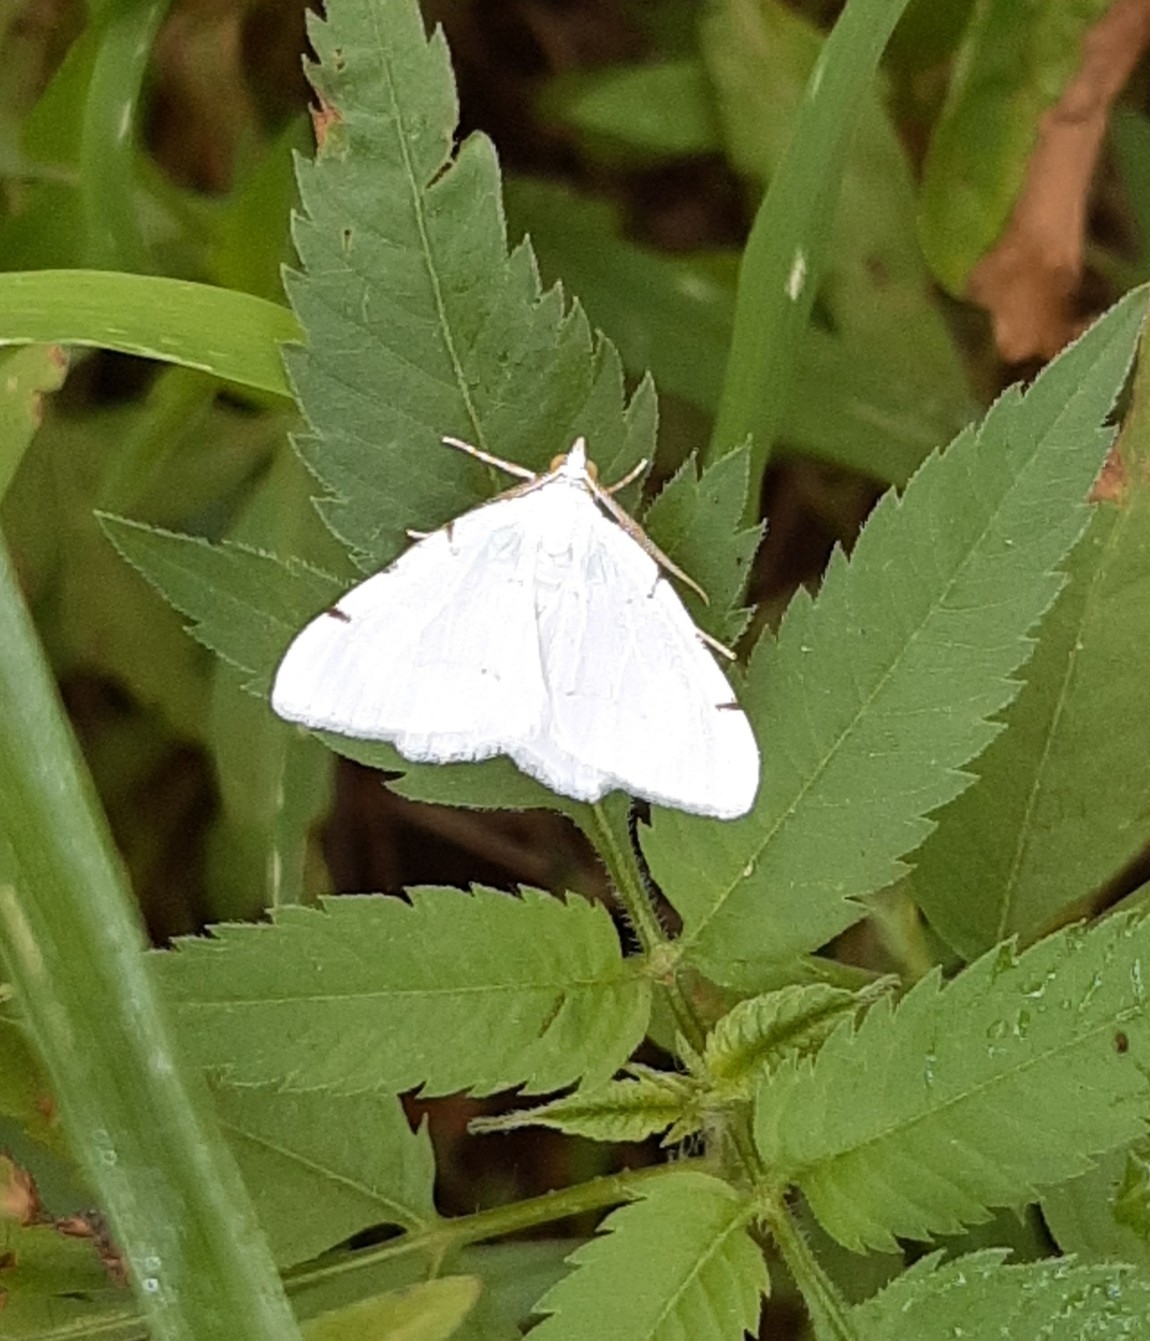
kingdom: Animalia
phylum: Arthropoda
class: Insecta
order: Lepidoptera
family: Geometridae
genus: Macaria
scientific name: Macaria pustularia
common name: Lesser maple spanworm moth
